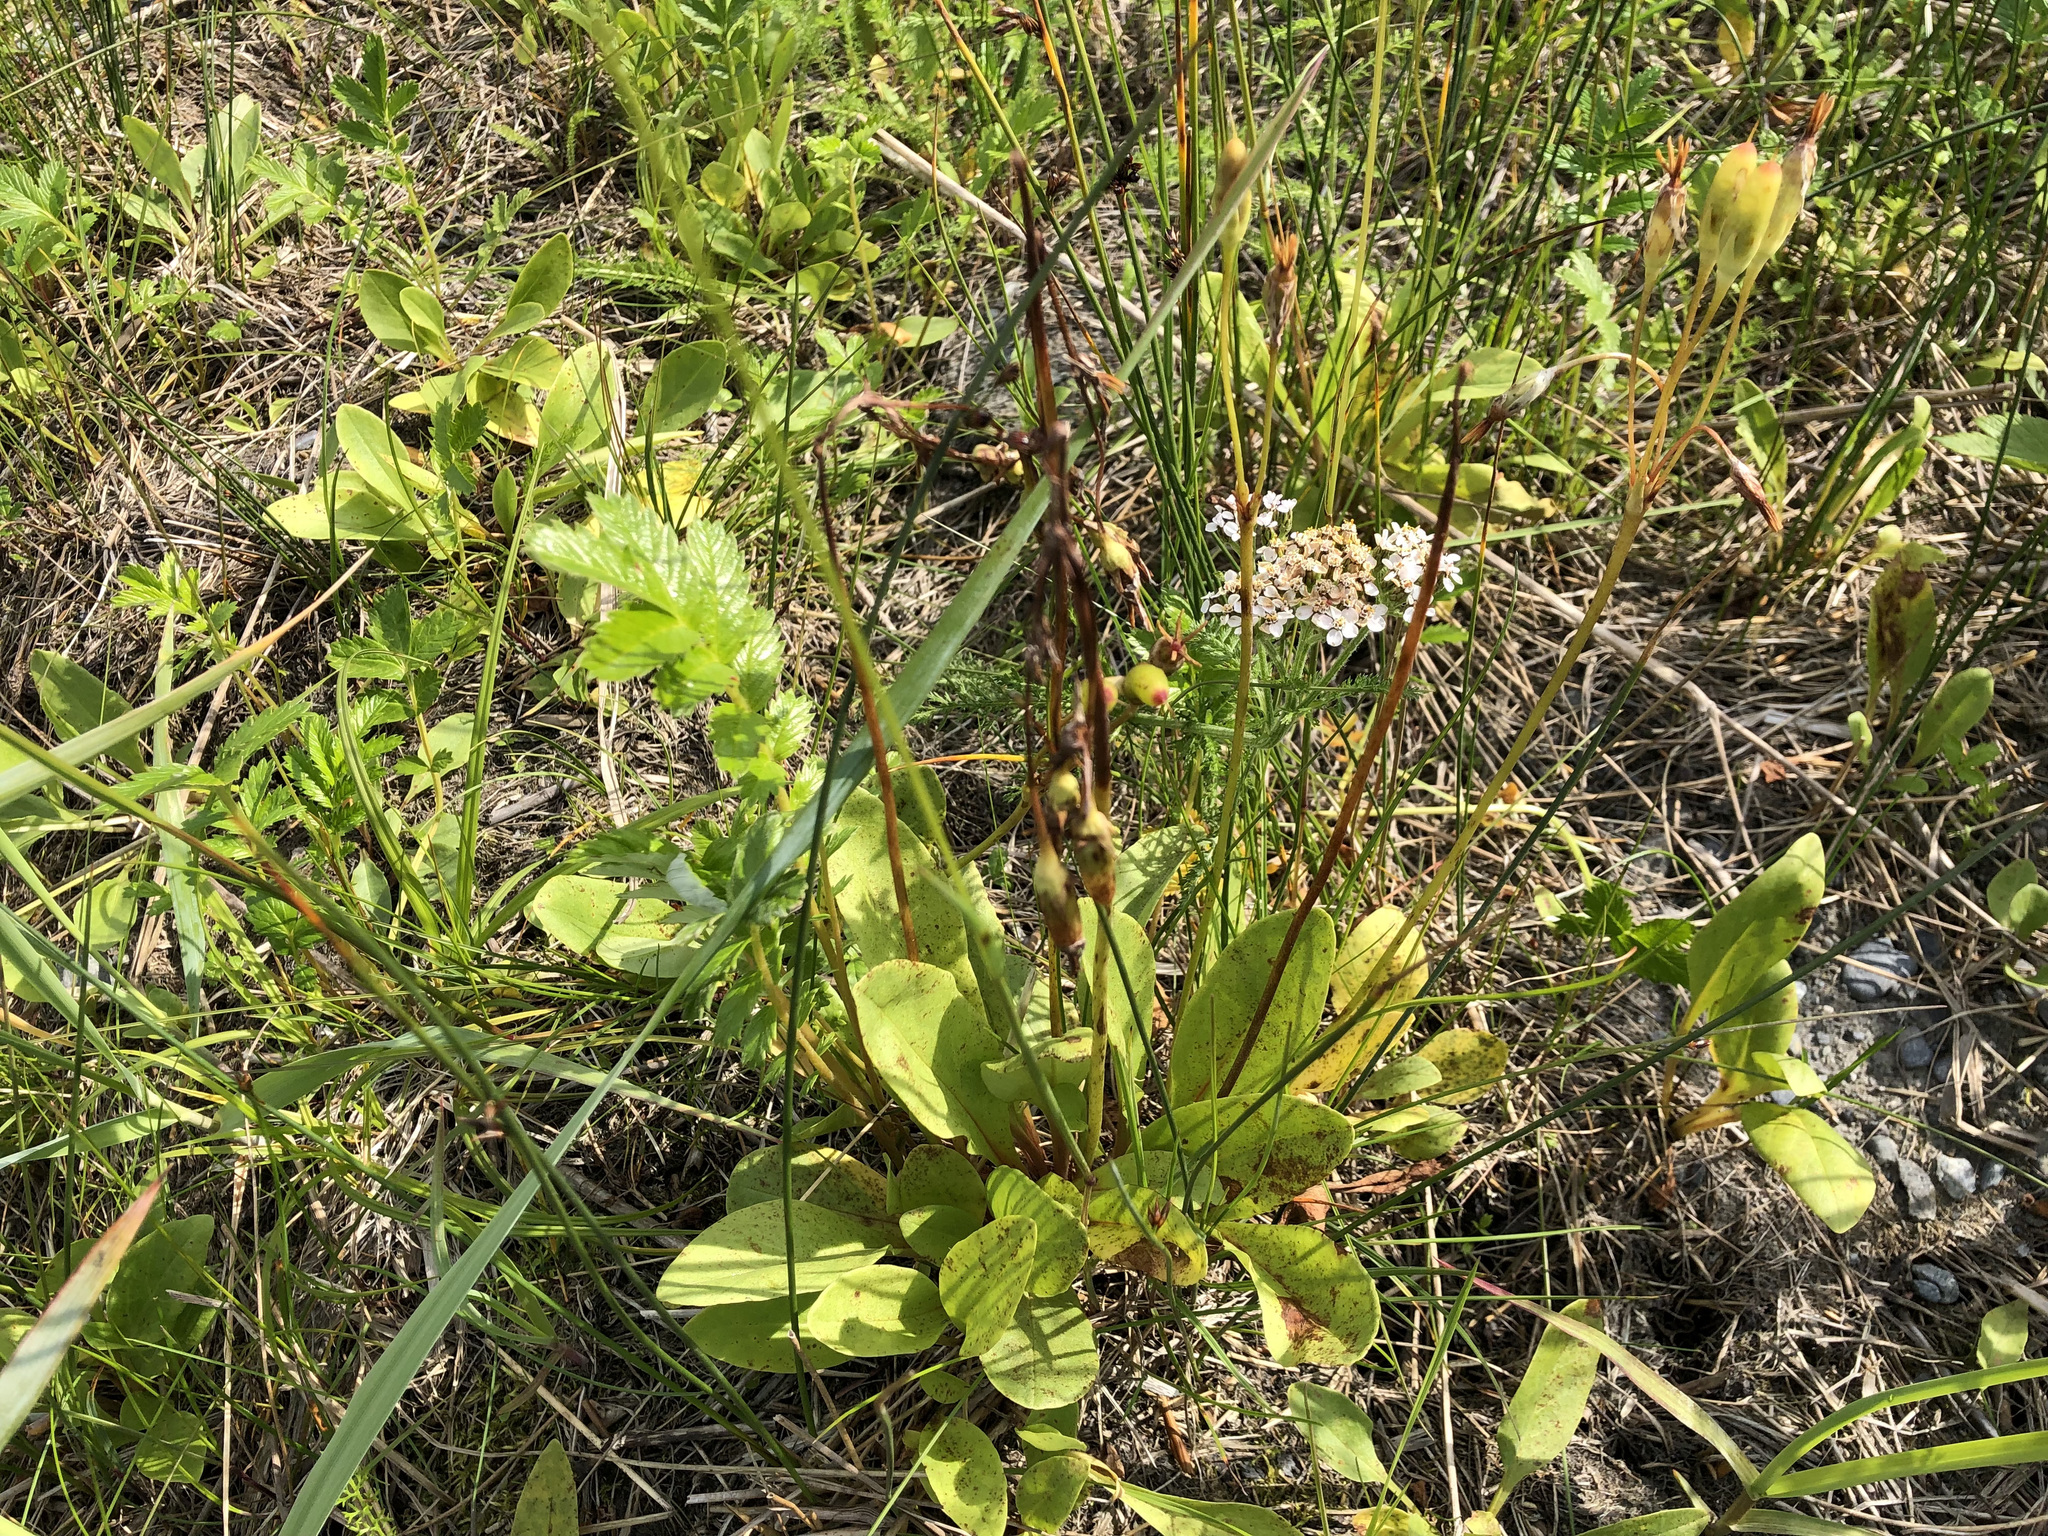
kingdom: Plantae
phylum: Tracheophyta
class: Magnoliopsida
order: Ericales
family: Primulaceae
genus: Dodecatheon
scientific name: Dodecatheon pulchellum
